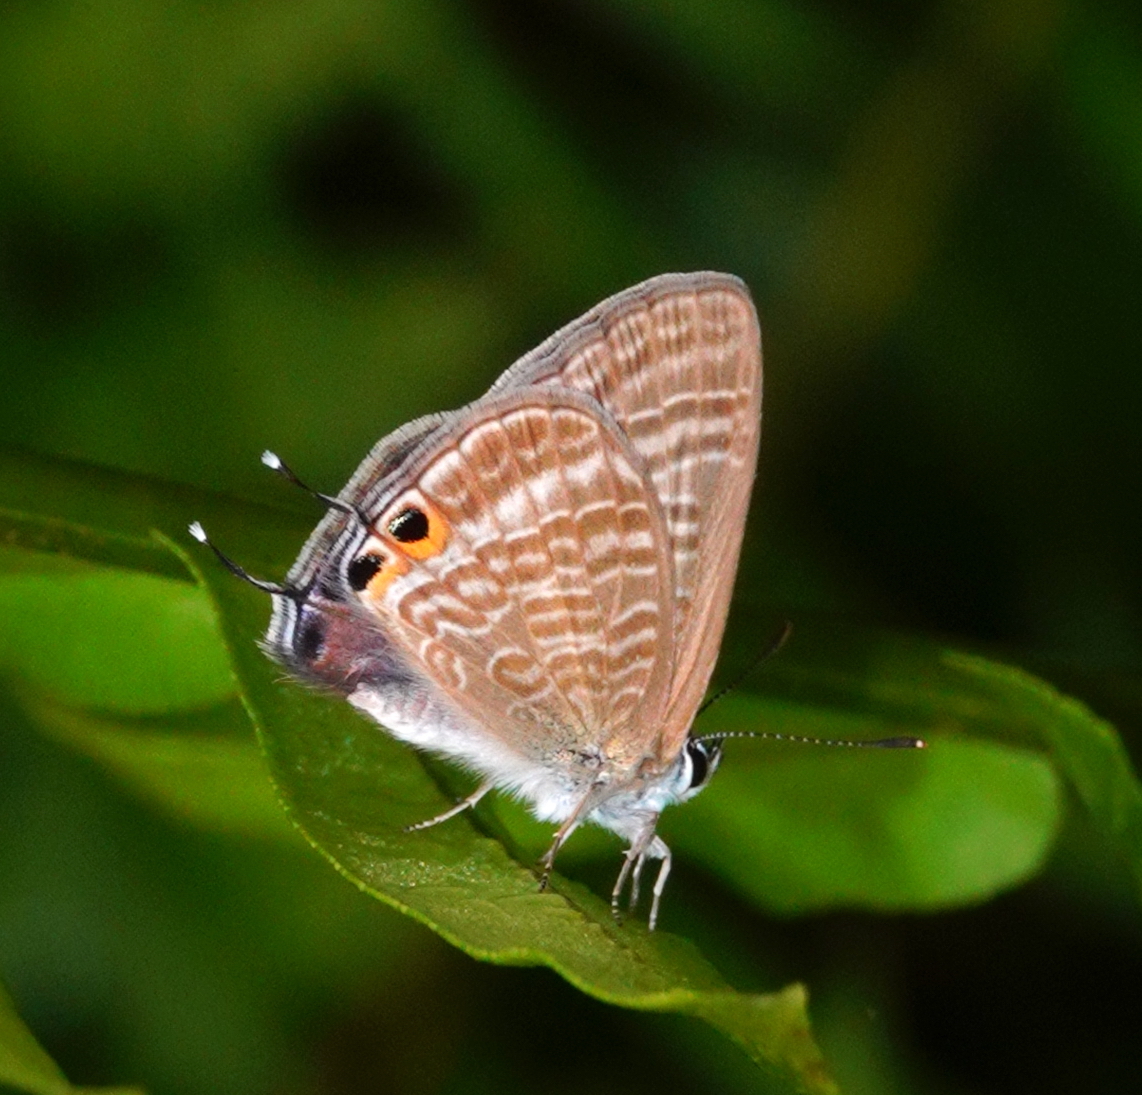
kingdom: Animalia
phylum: Arthropoda
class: Insecta
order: Lepidoptera
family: Lycaenidae
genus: Lampides
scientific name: Lampides boeticus
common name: Long-tailed blue
